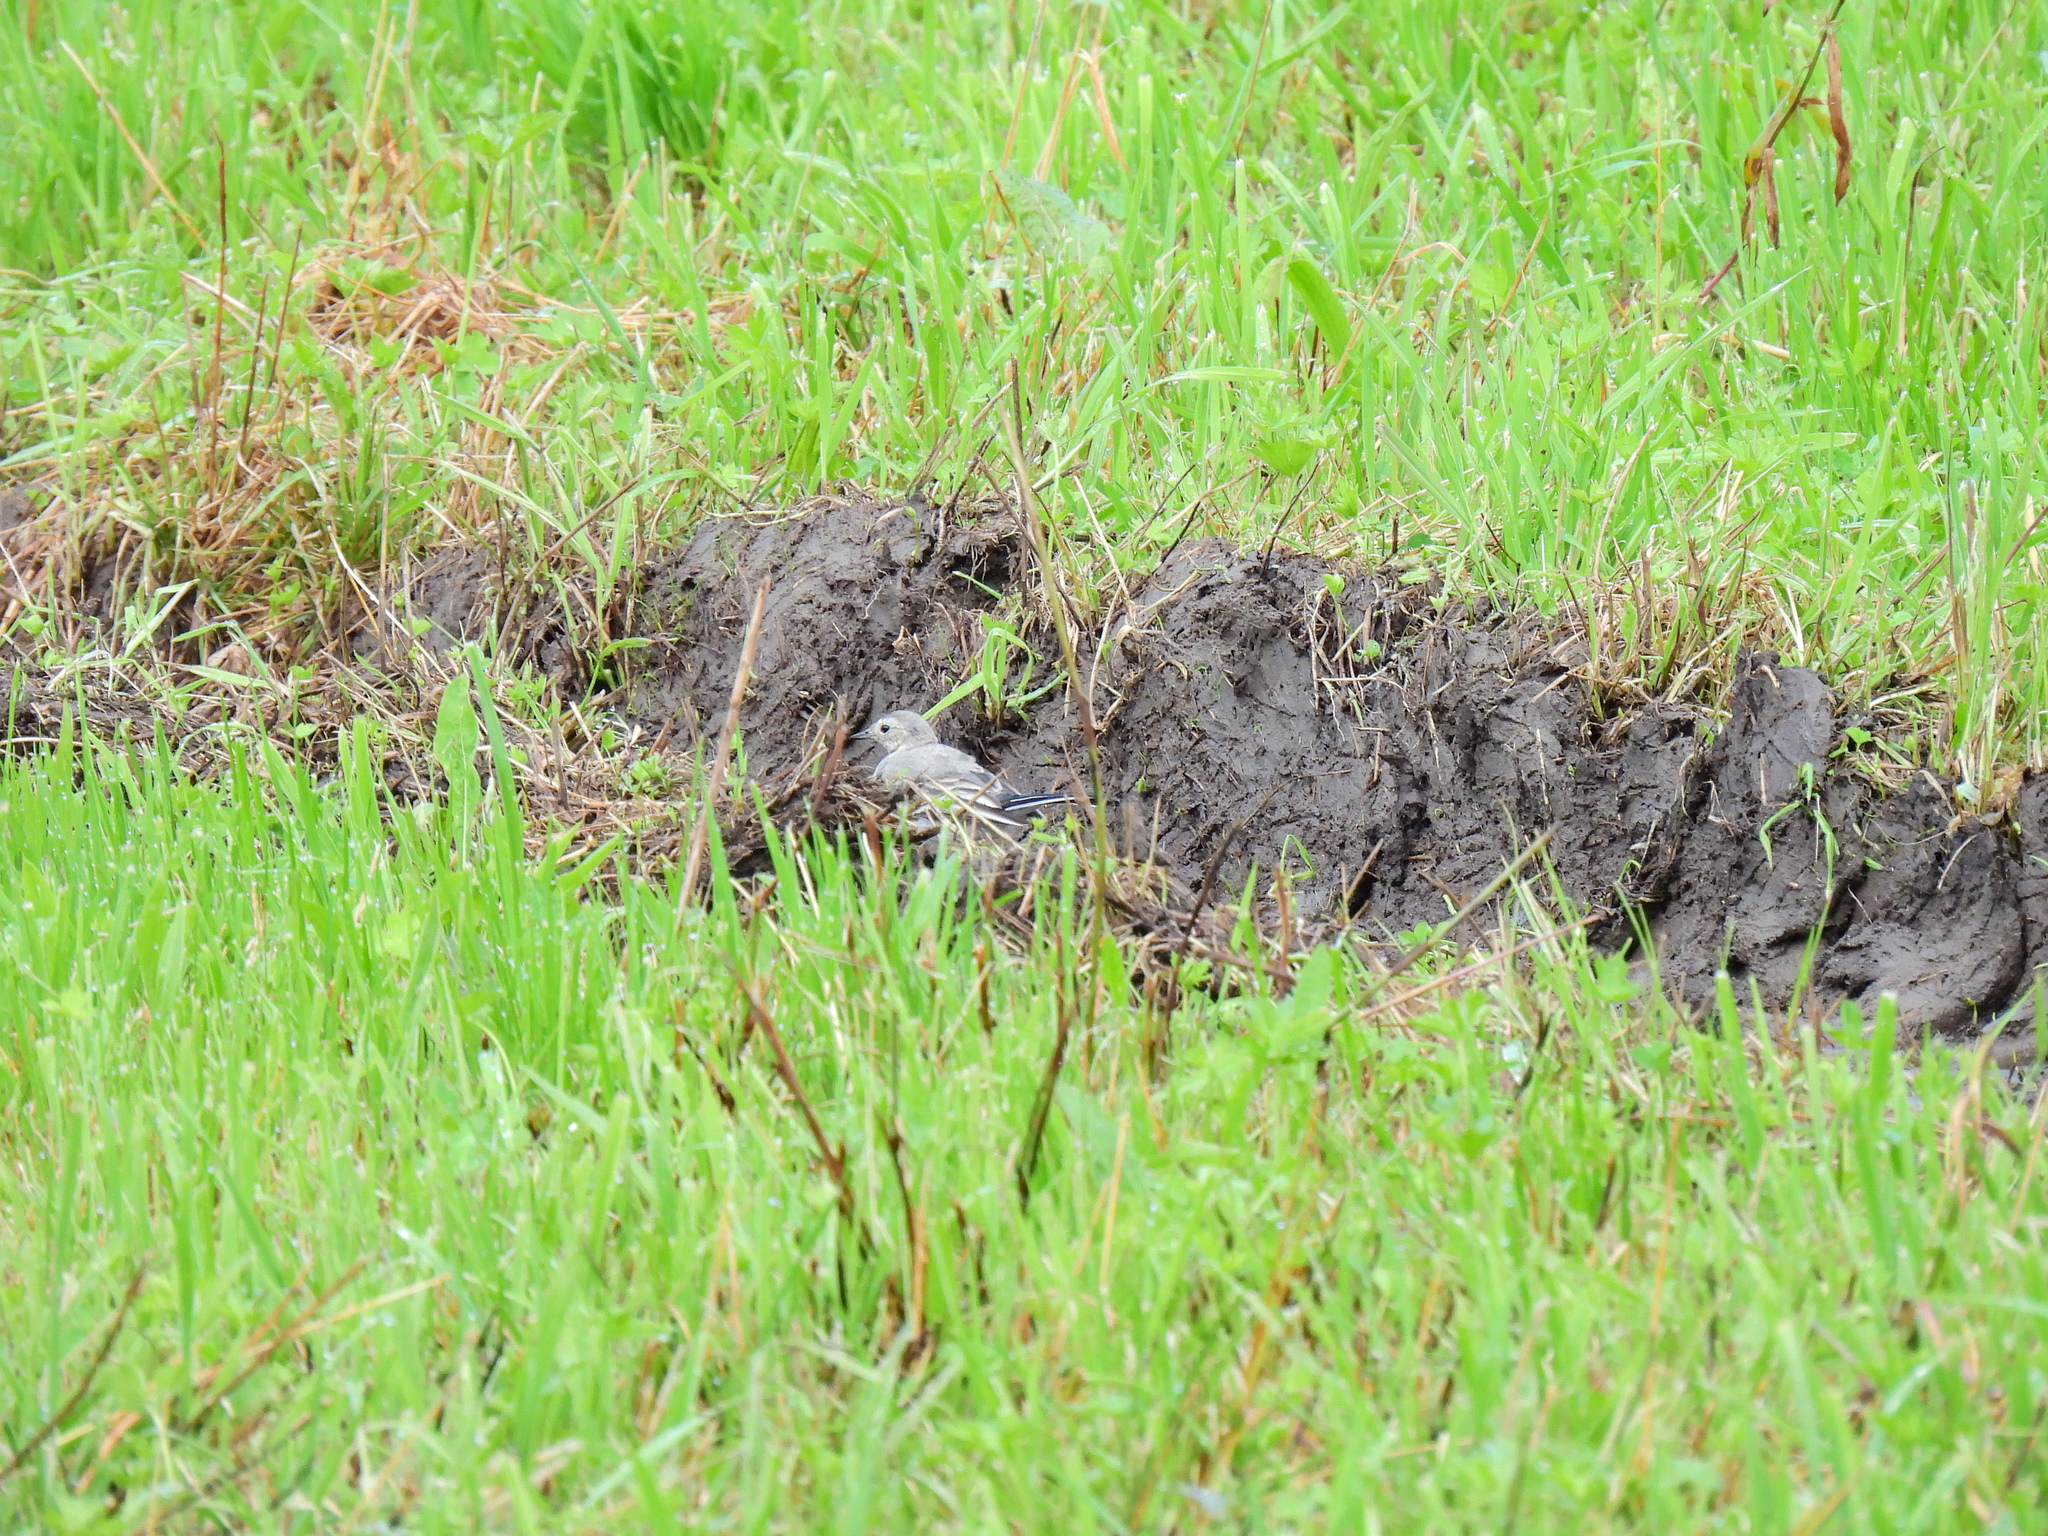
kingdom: Animalia
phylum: Chordata
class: Aves
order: Passeriformes
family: Motacillidae
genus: Motacilla
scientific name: Motacilla alba
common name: White wagtail
